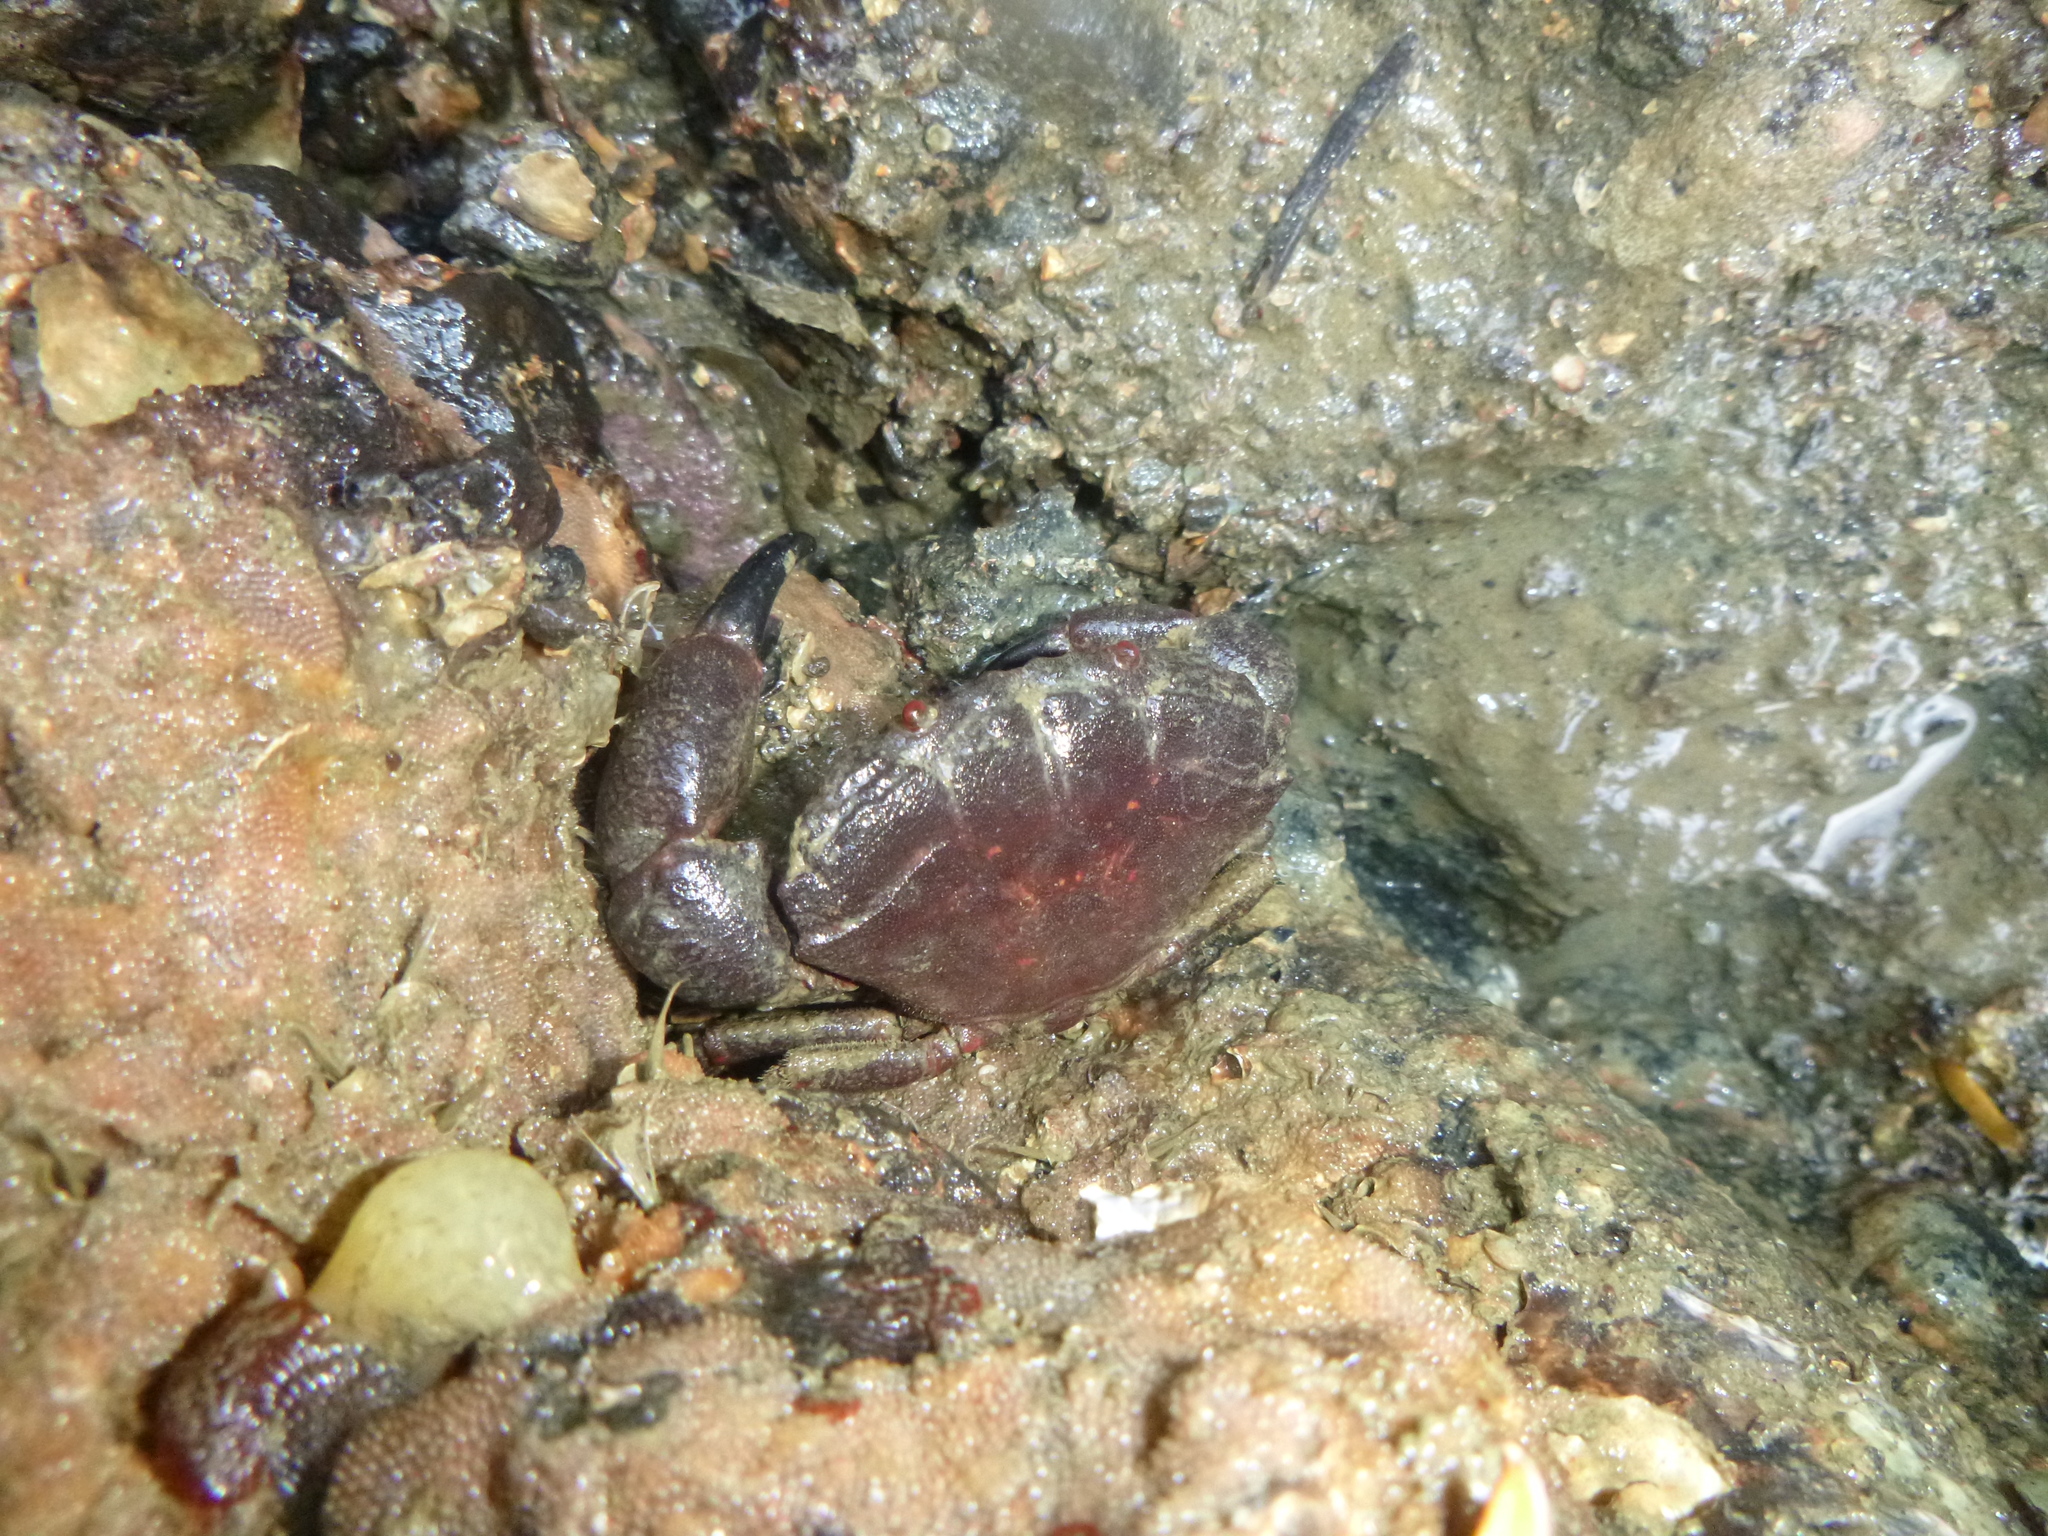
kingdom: Animalia
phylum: Arthropoda
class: Malacostraca
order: Decapoda
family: Oziidae
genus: Ozius
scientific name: Ozius deplanatus
